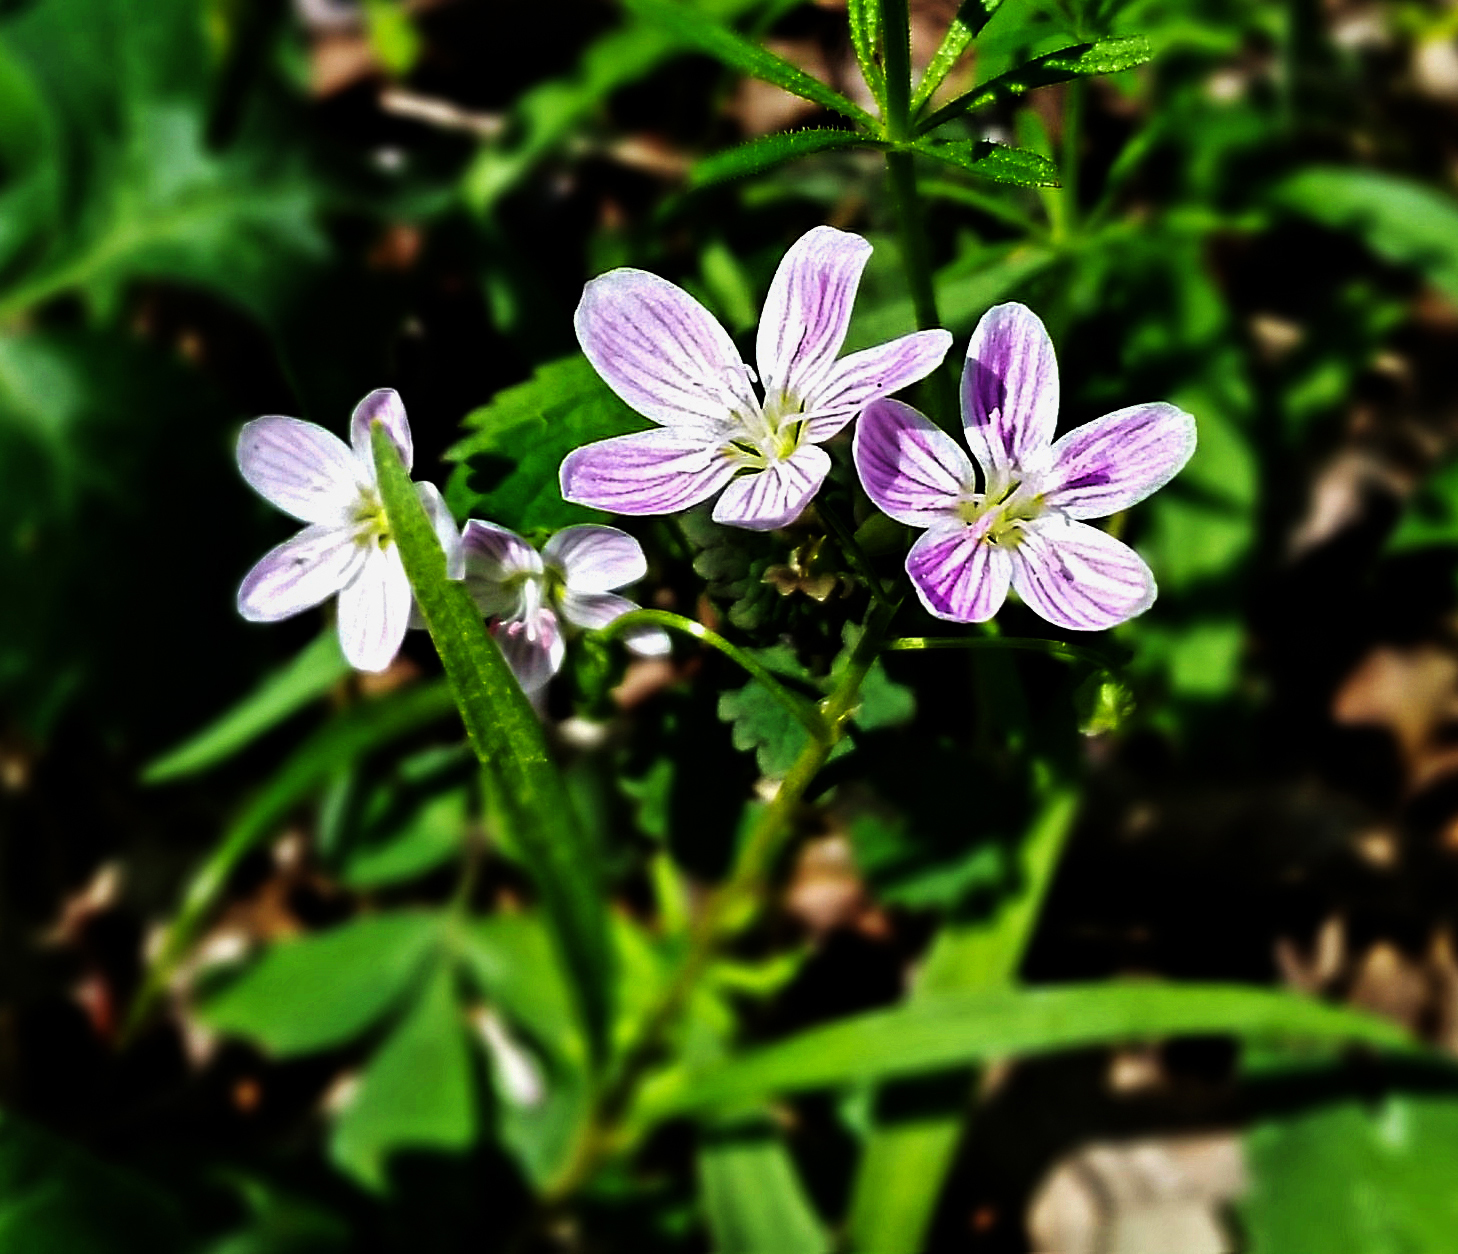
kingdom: Plantae
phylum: Tracheophyta
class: Magnoliopsida
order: Caryophyllales
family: Montiaceae
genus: Claytonia
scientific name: Claytonia virginica
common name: Virginia springbeauty
